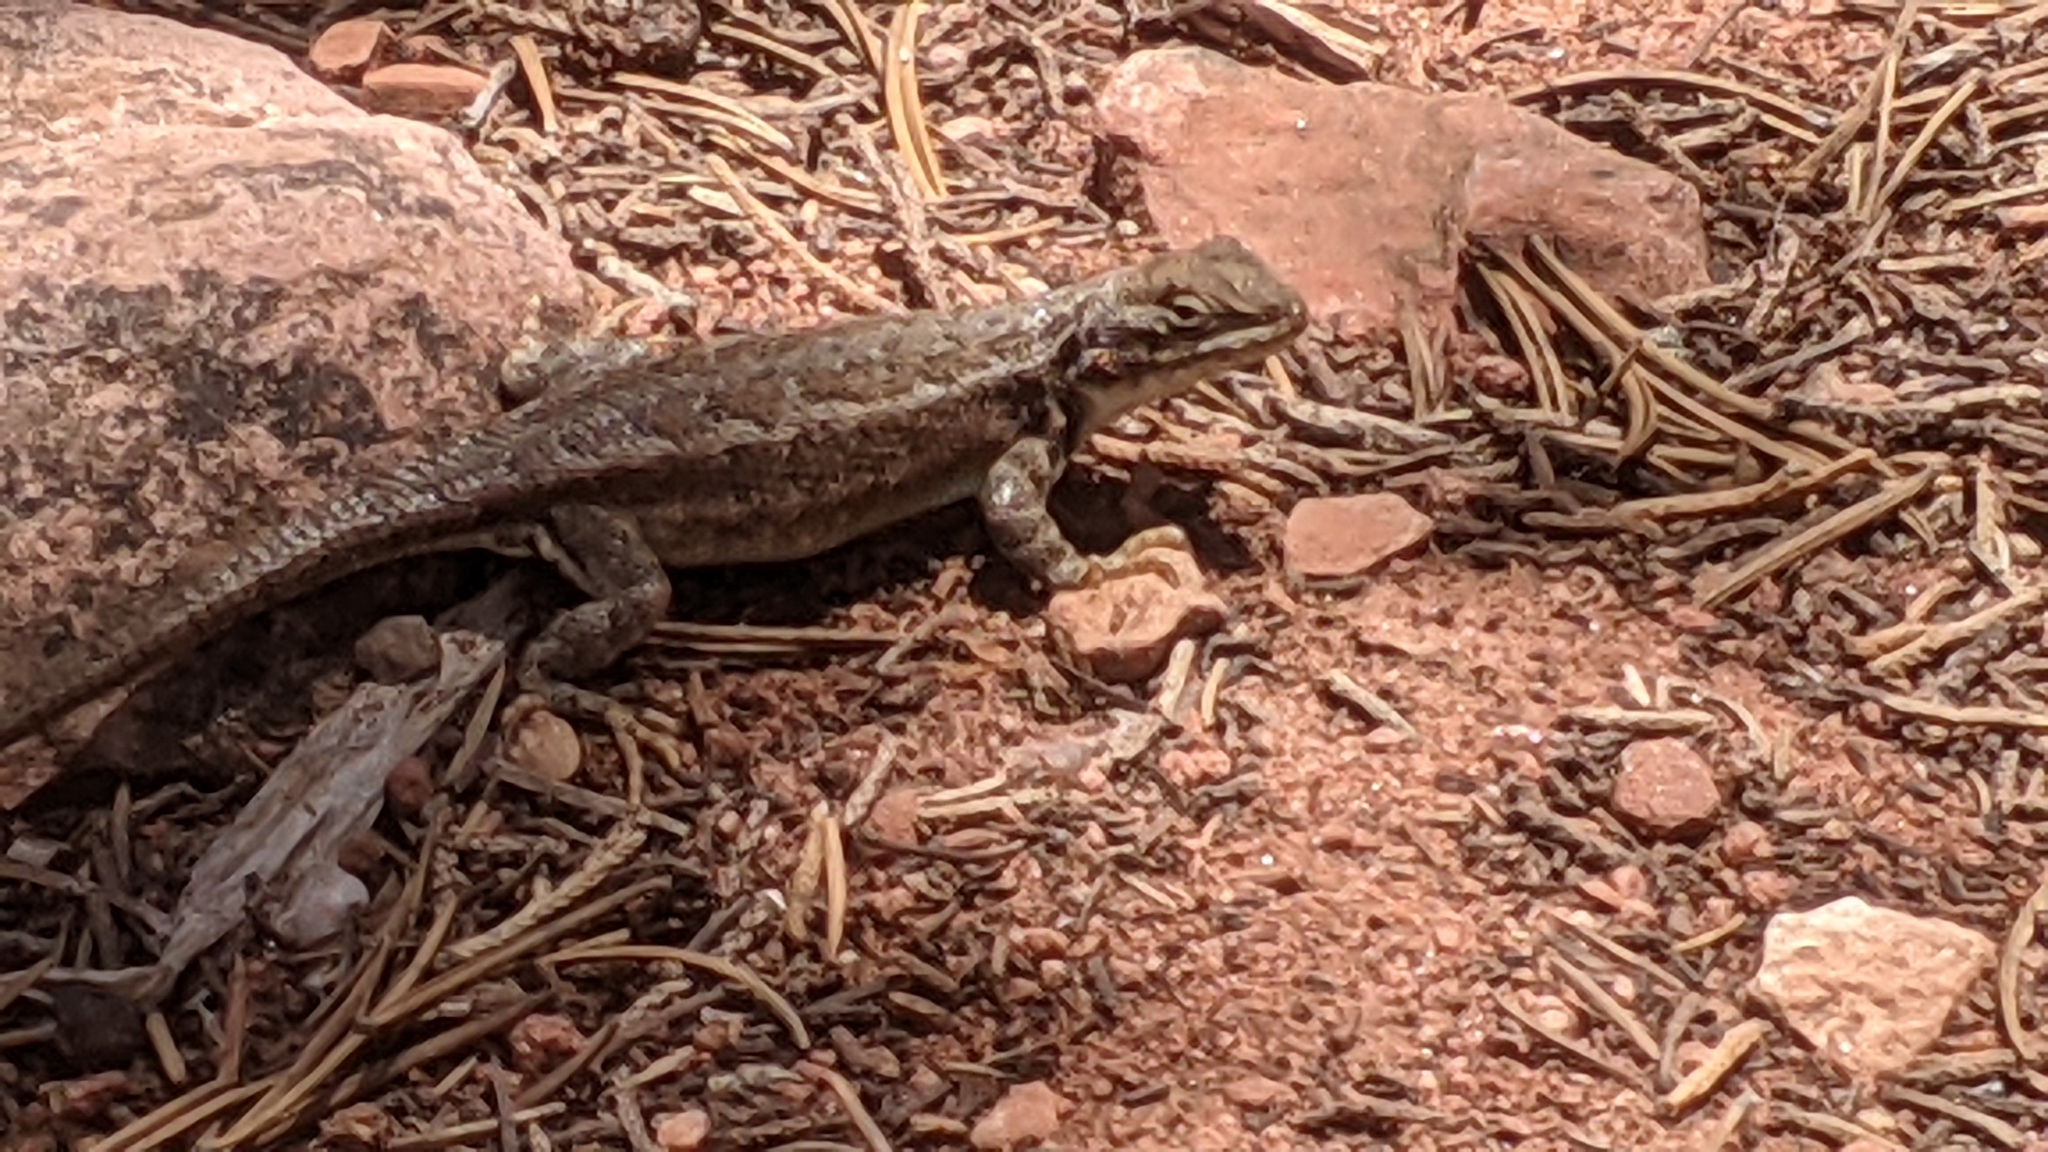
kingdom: Animalia
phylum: Chordata
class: Squamata
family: Phrynosomatidae
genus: Sceloporus
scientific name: Sceloporus graciosus
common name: Sagebrush lizard
